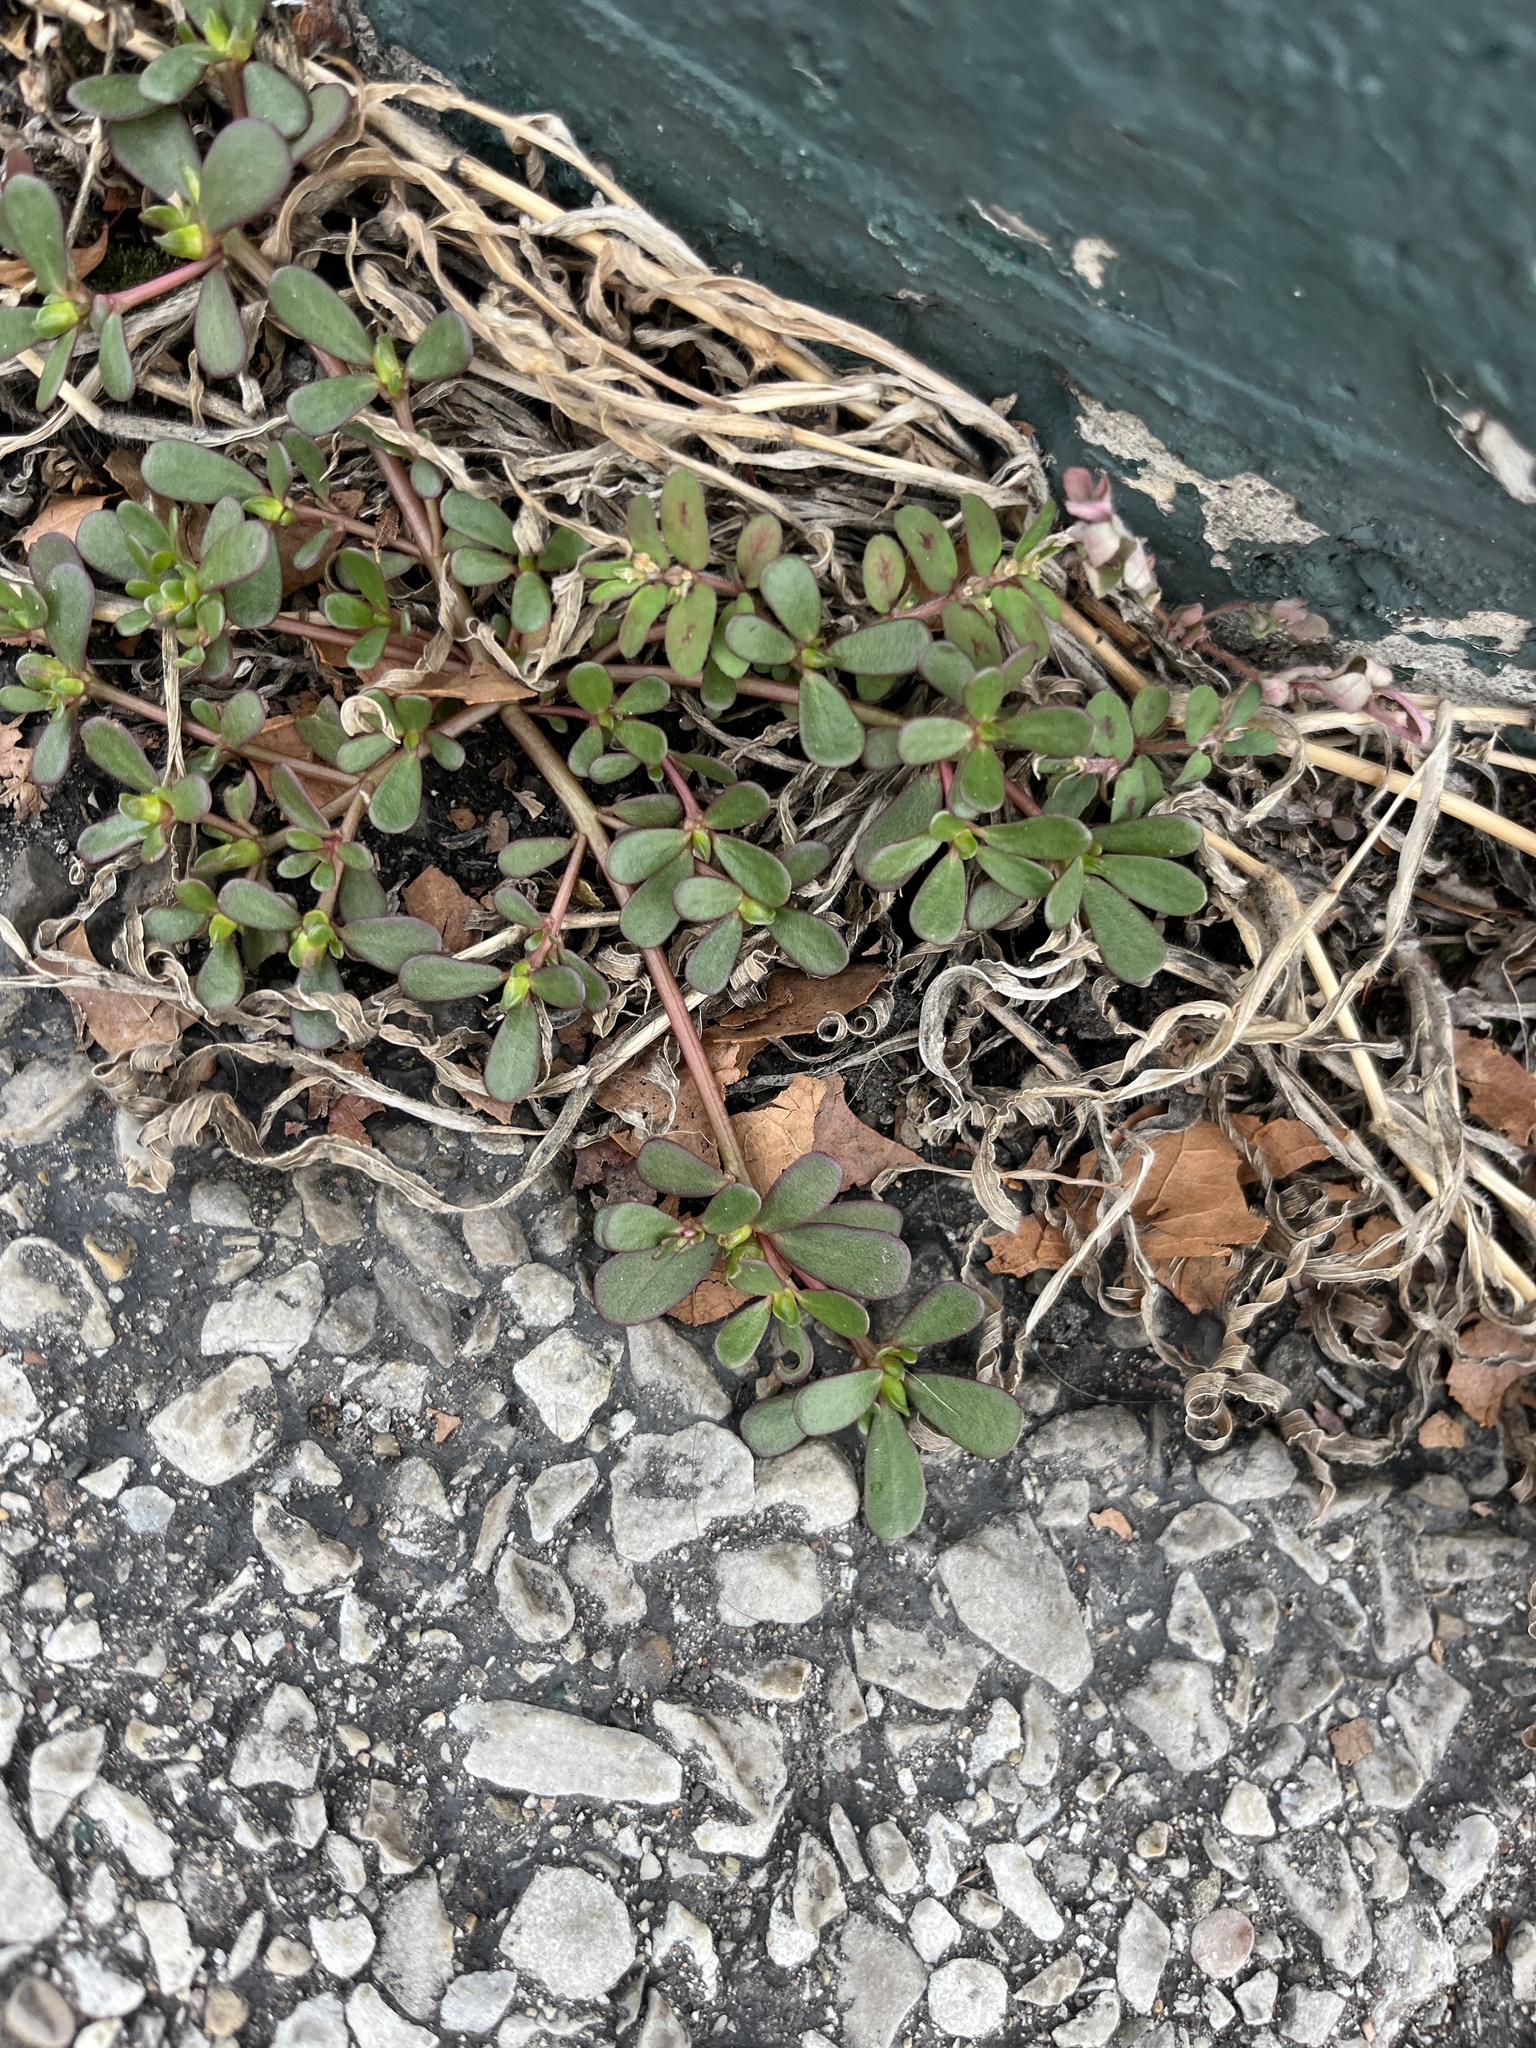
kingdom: Plantae
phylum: Tracheophyta
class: Magnoliopsida
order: Caryophyllales
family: Portulacaceae
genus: Portulaca
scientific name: Portulaca oleracea
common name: Common purslane
